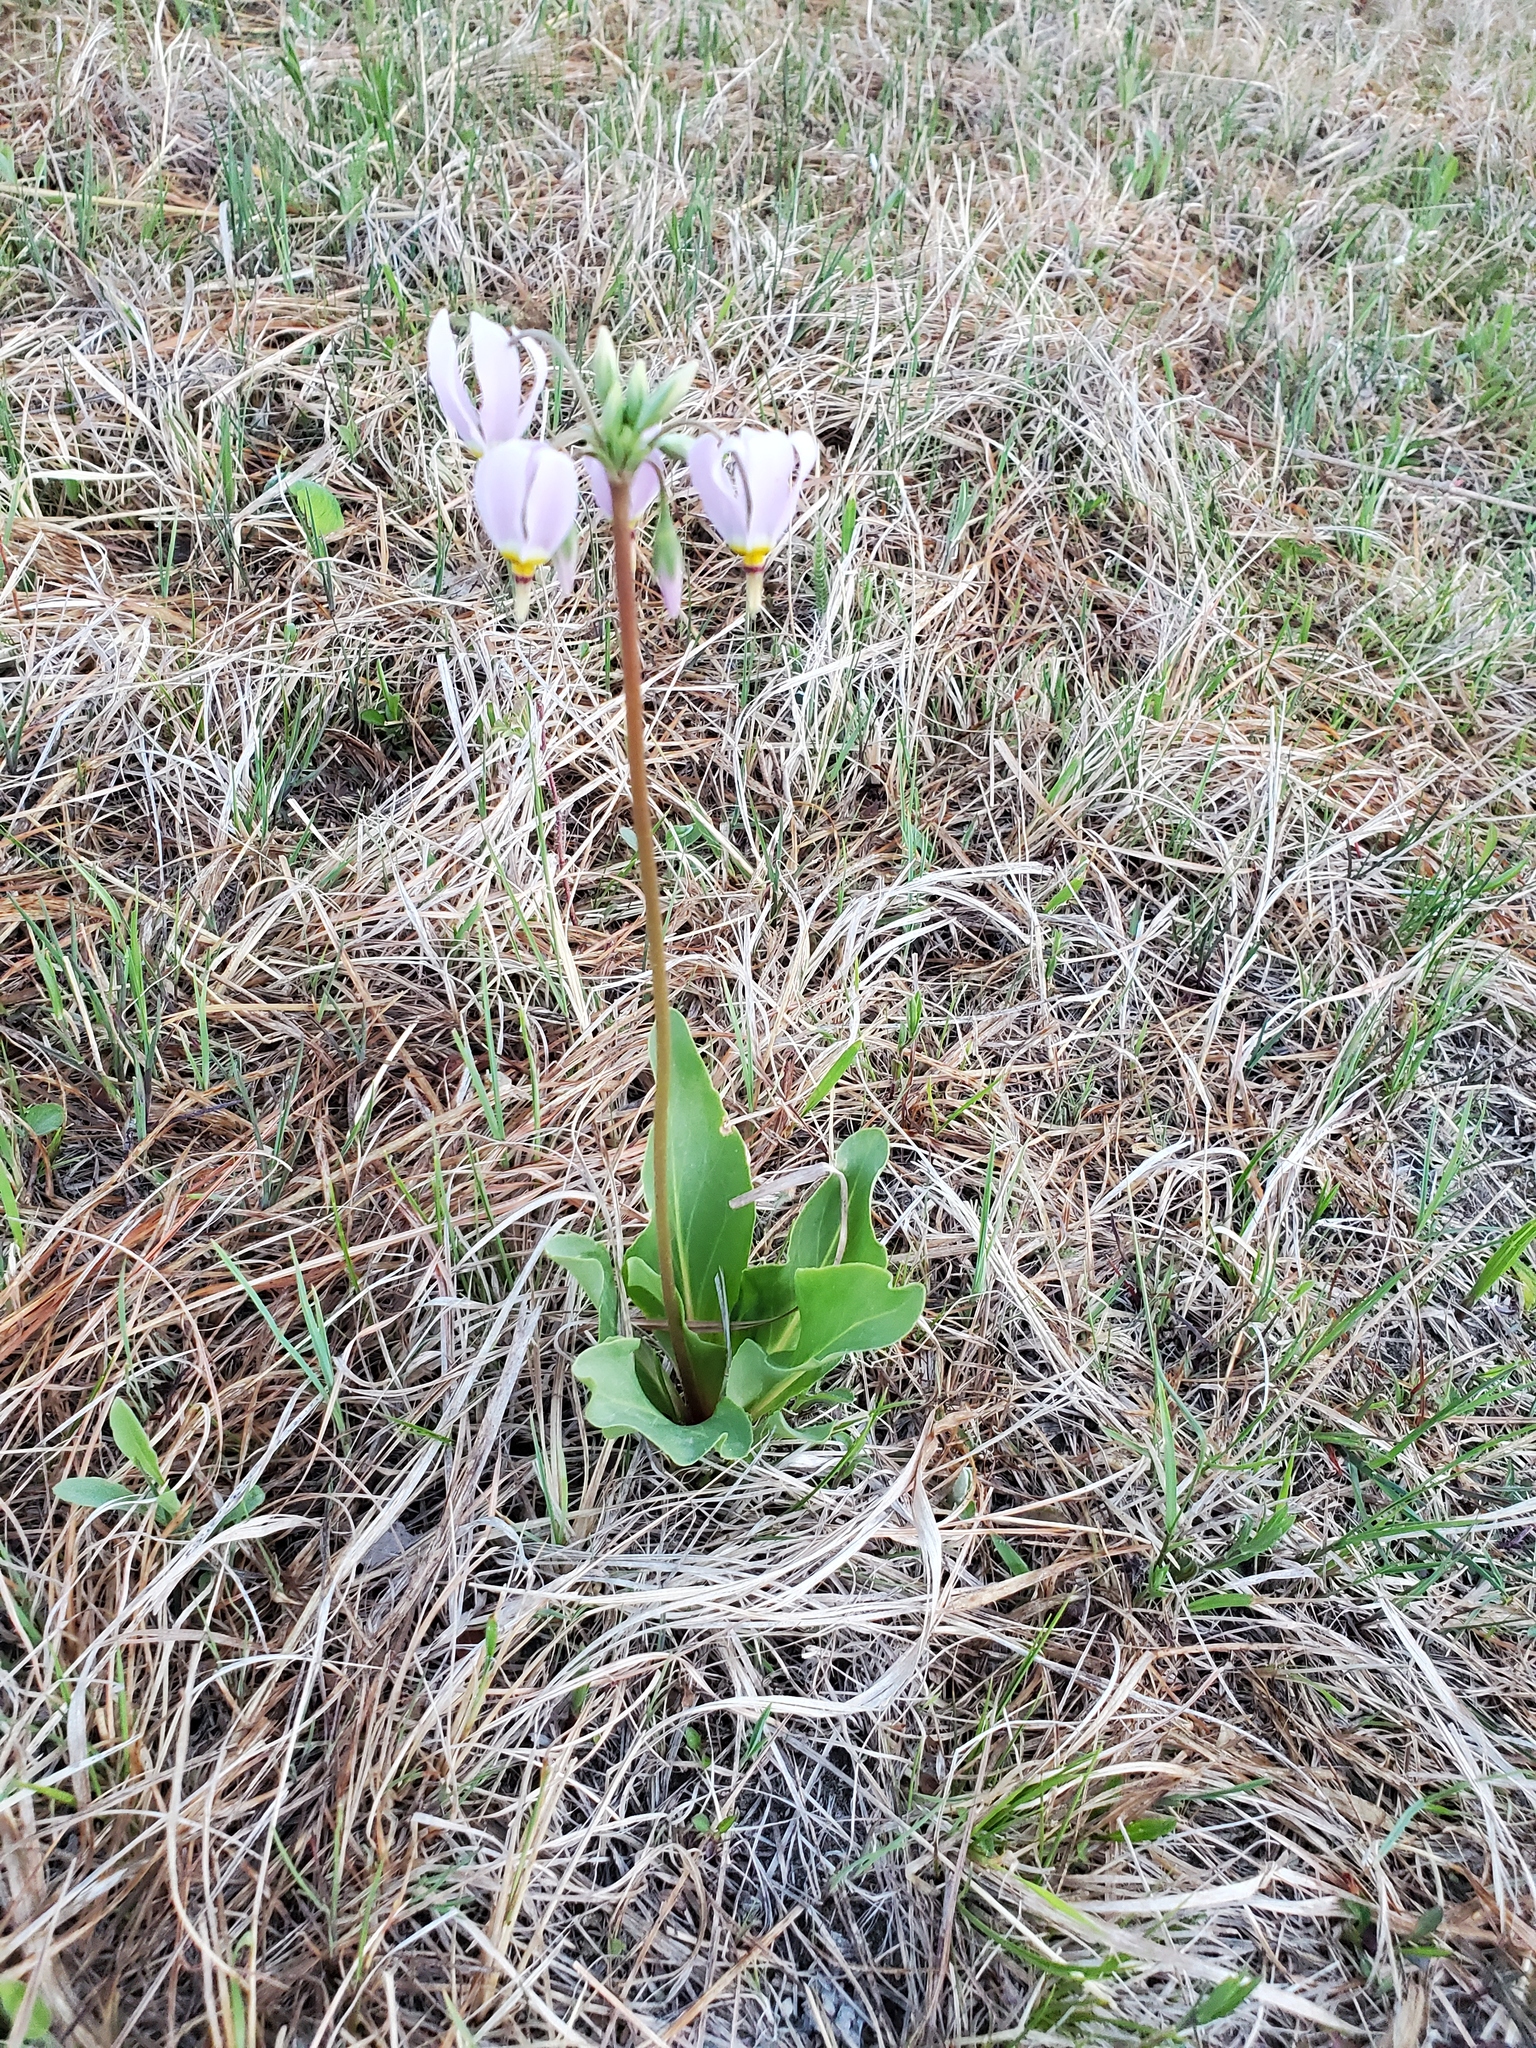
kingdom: Plantae
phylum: Tracheophyta
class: Magnoliopsida
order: Ericales
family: Primulaceae
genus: Dodecatheon
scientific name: Dodecatheon meadia
